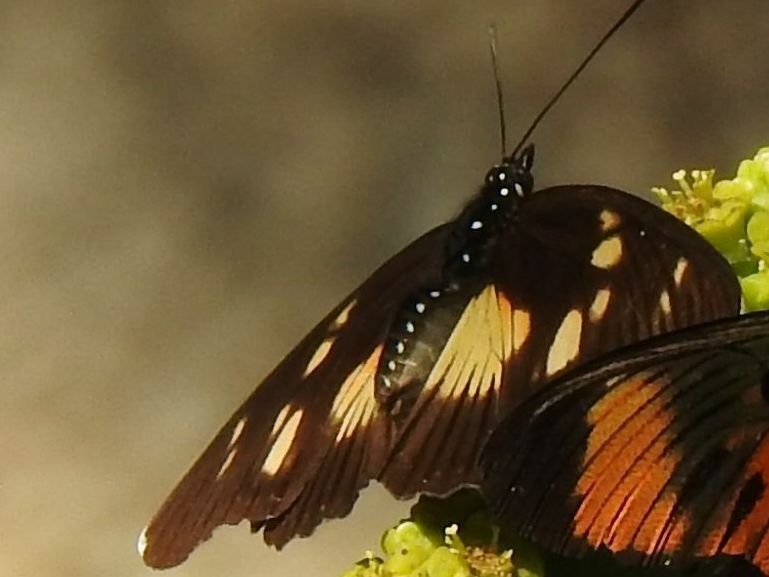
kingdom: Animalia
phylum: Arthropoda
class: Insecta
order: Lepidoptera
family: Nymphalidae
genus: Chloropoea
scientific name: Chloropoea lucretia
